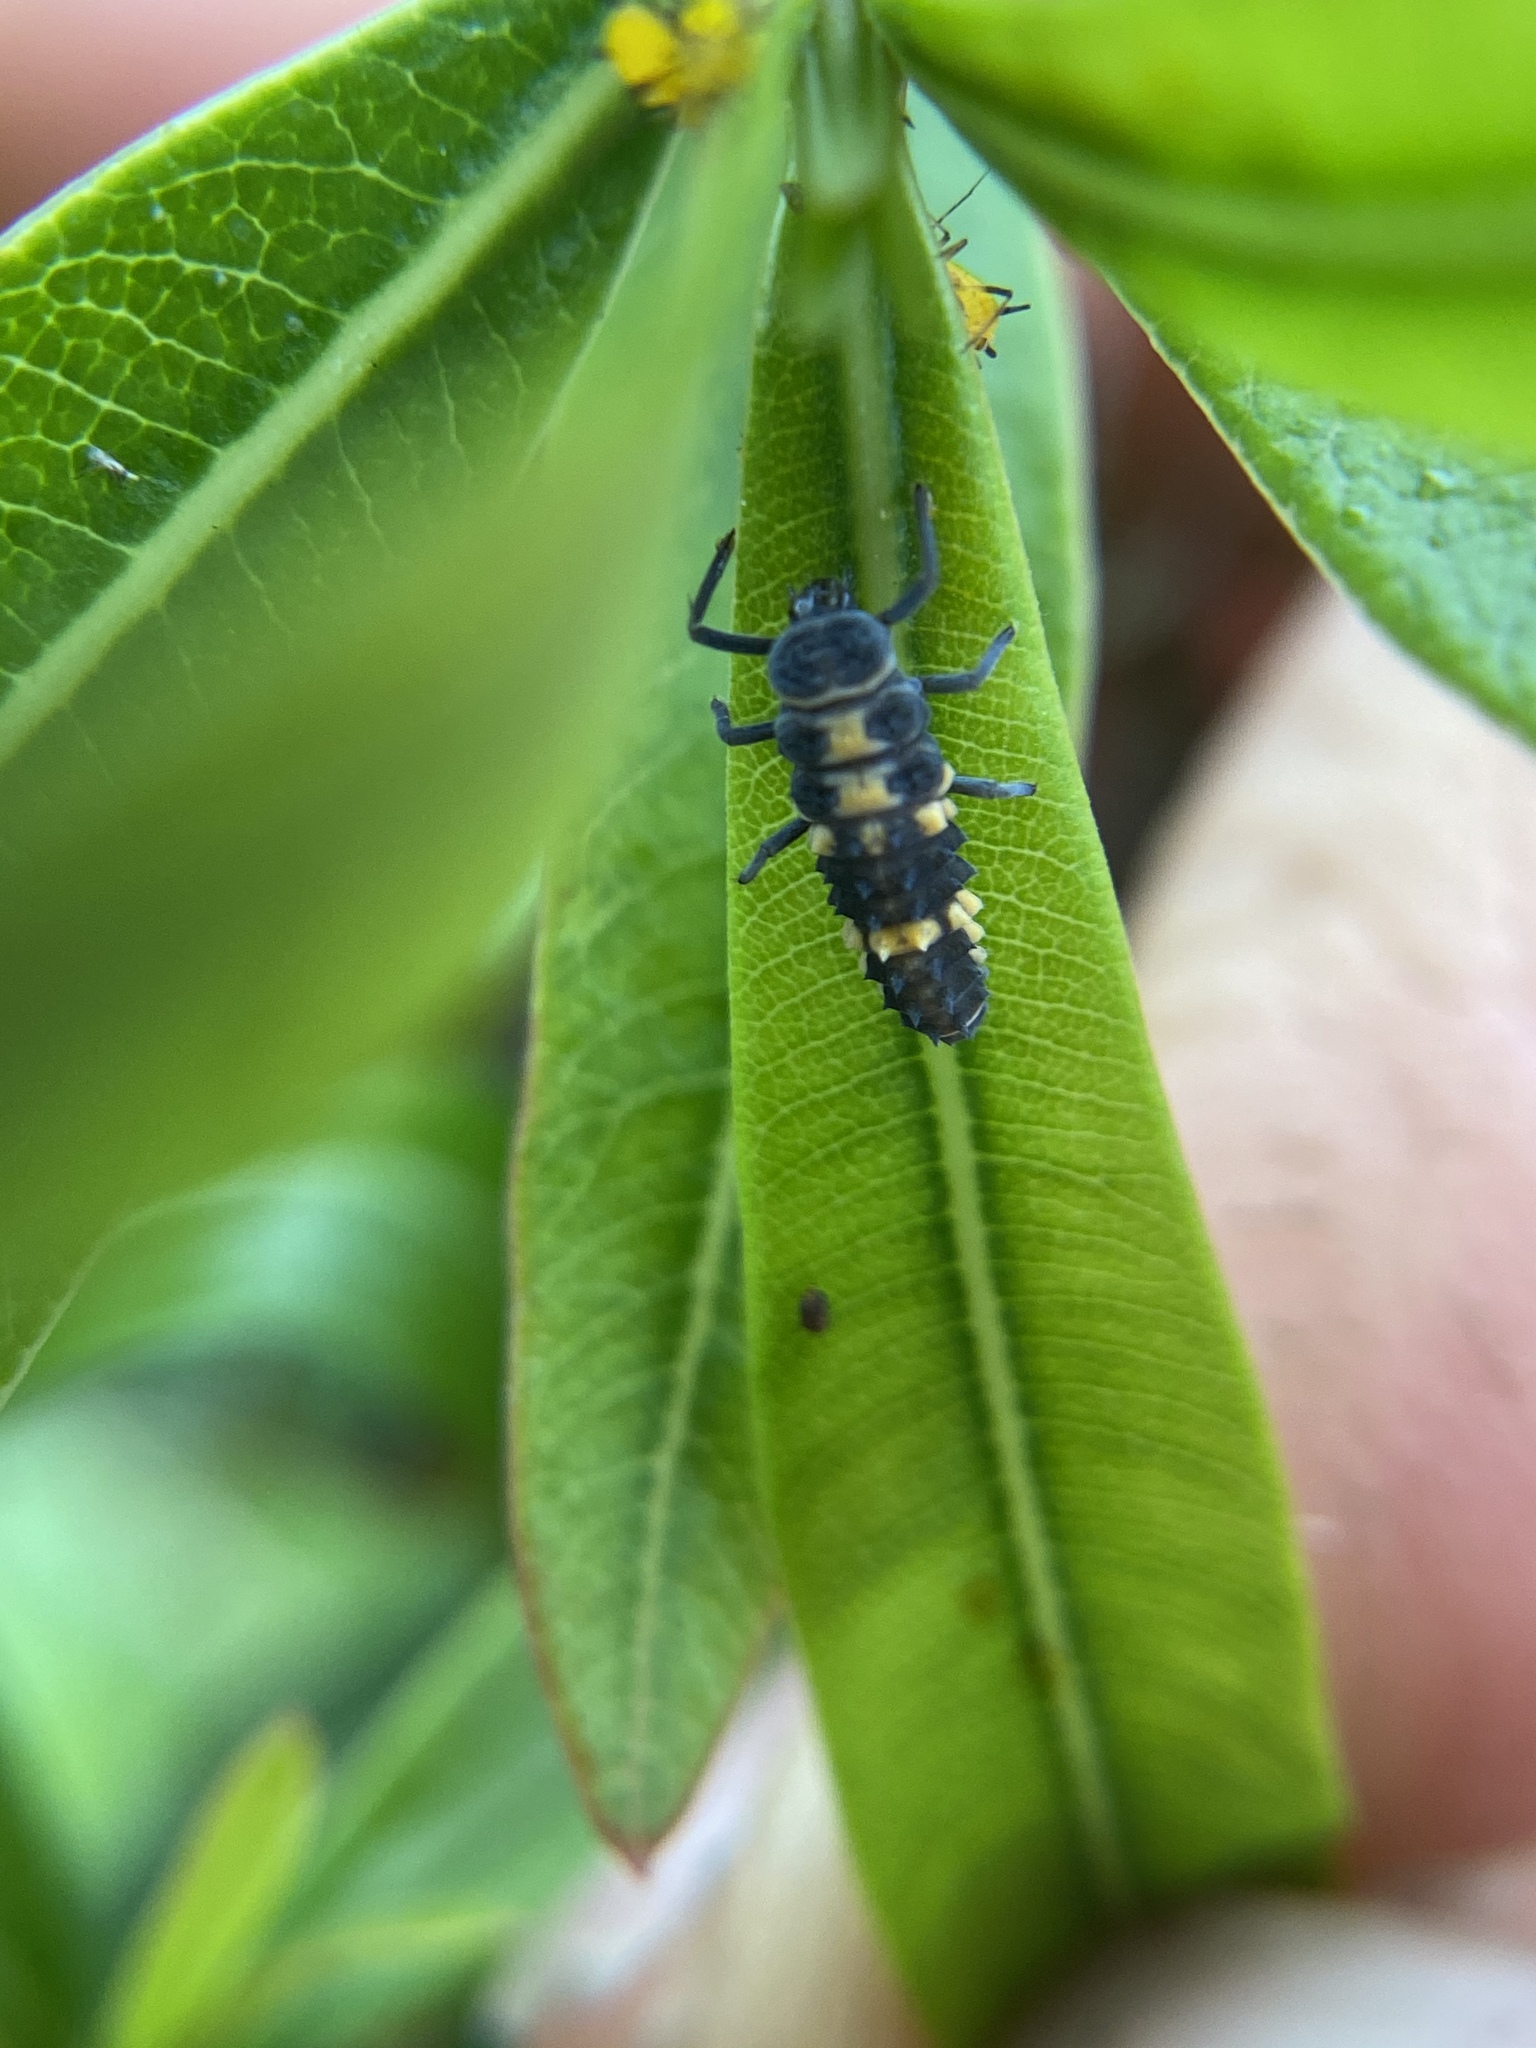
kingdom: Animalia
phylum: Arthropoda
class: Insecta
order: Coleoptera
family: Coccinellidae
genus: Coelophora
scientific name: Coelophora inaequalis
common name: Common australian lady beetle
